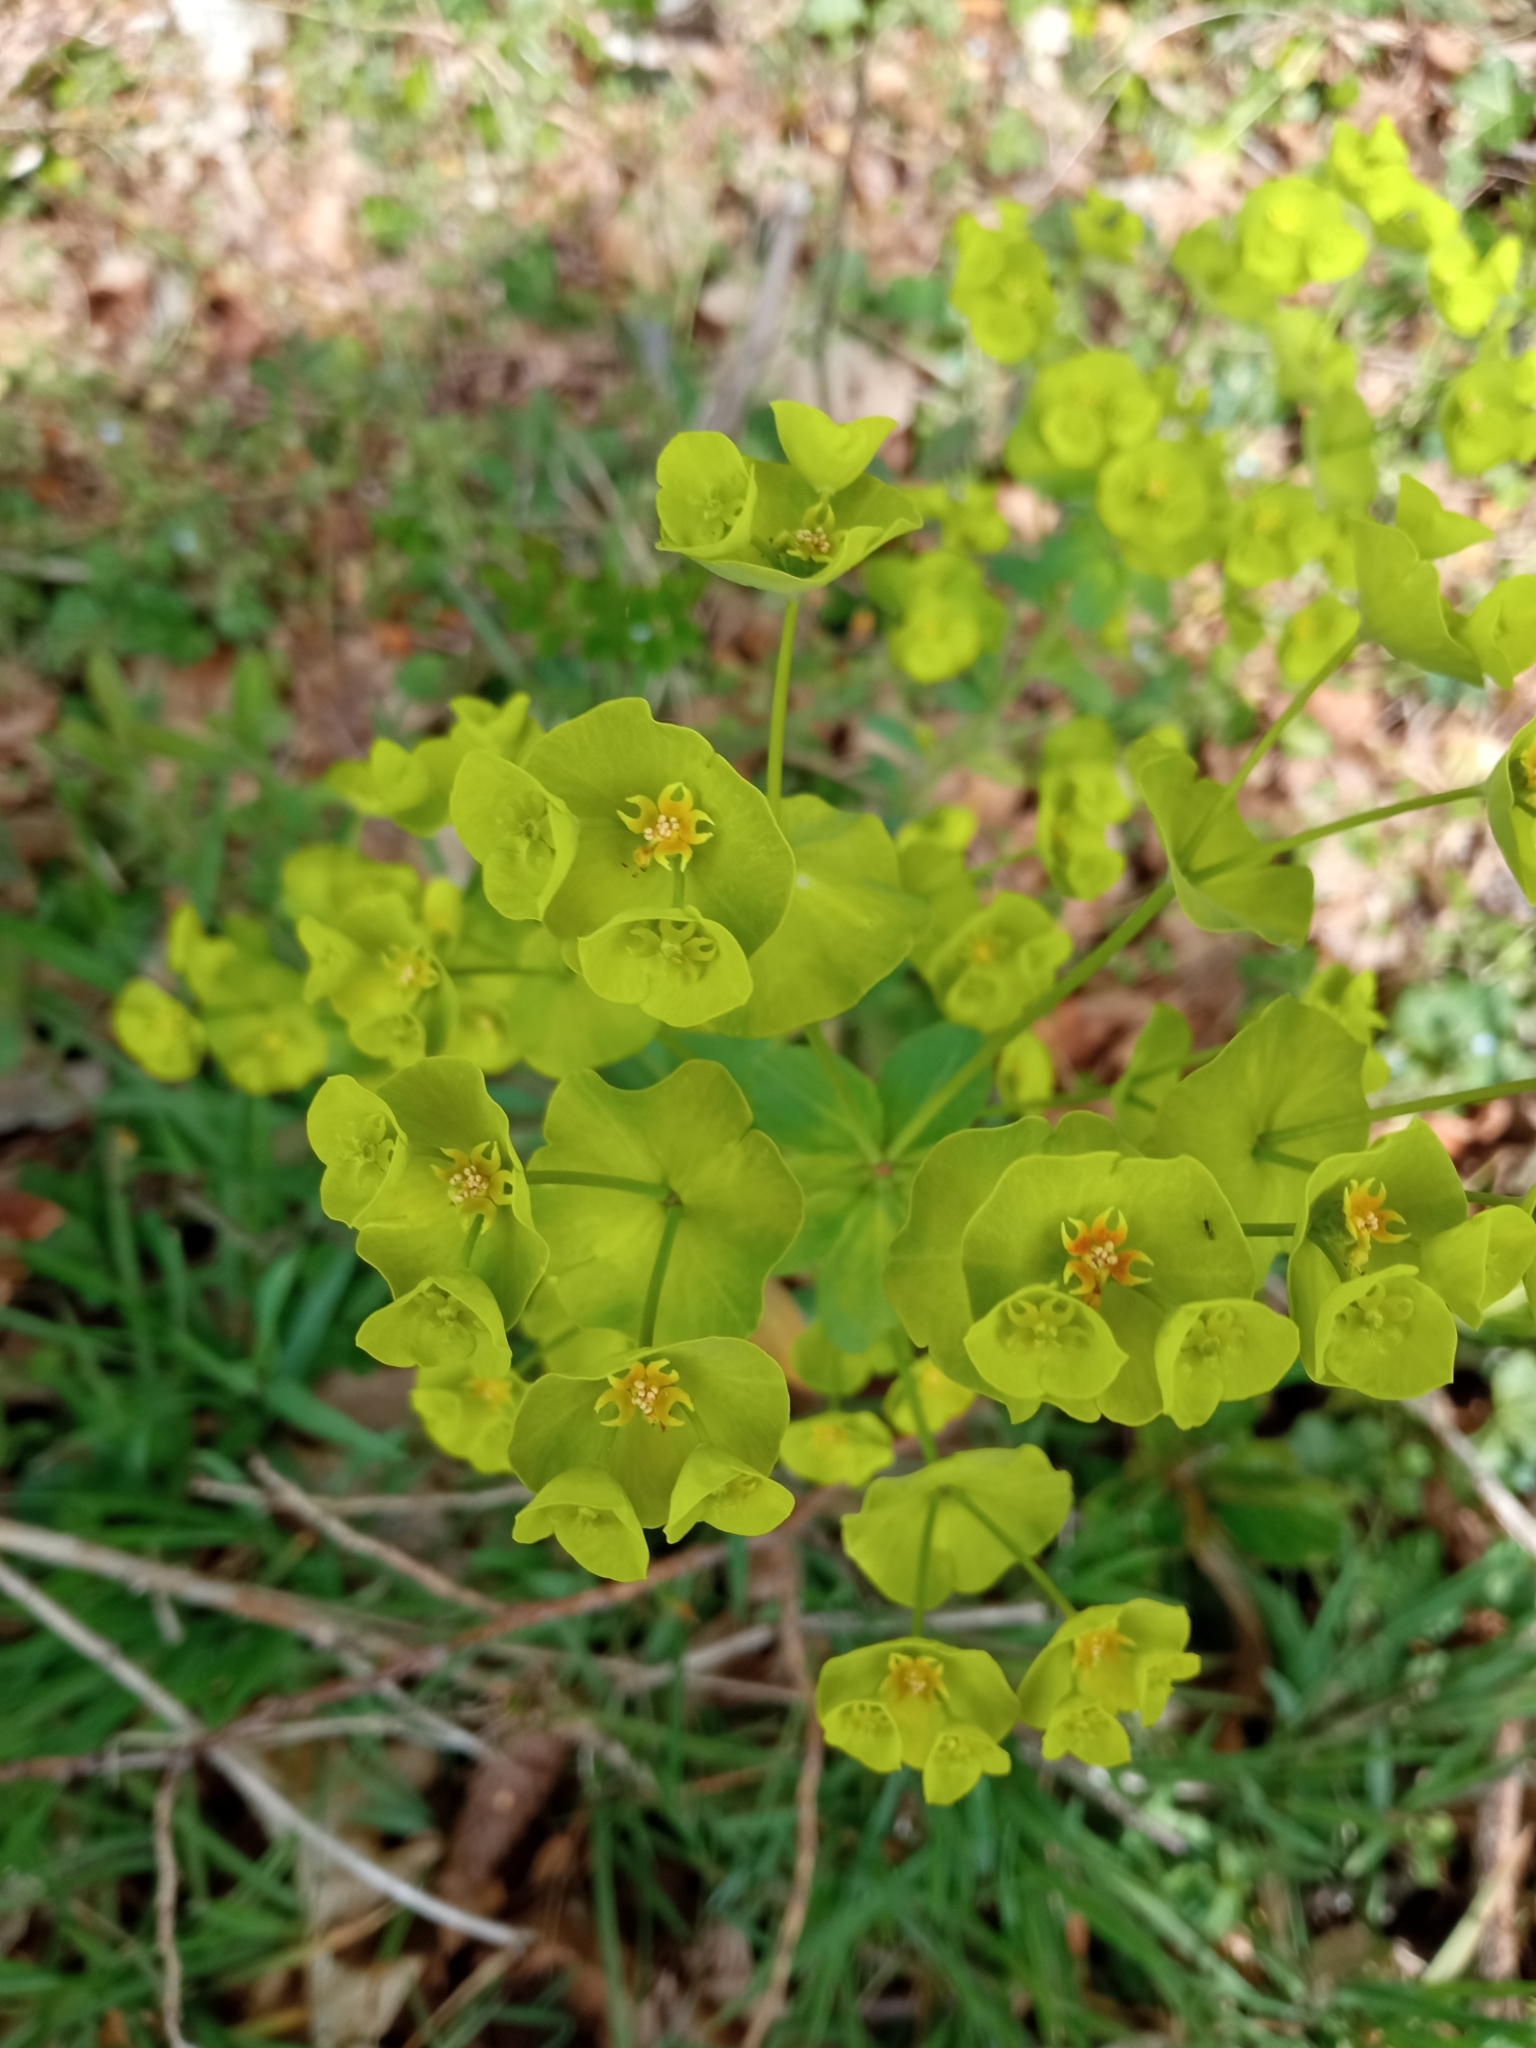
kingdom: Plantae
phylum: Tracheophyta
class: Magnoliopsida
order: Malpighiales
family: Euphorbiaceae
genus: Euphorbia
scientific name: Euphorbia amygdaloides
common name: Wood spurge
